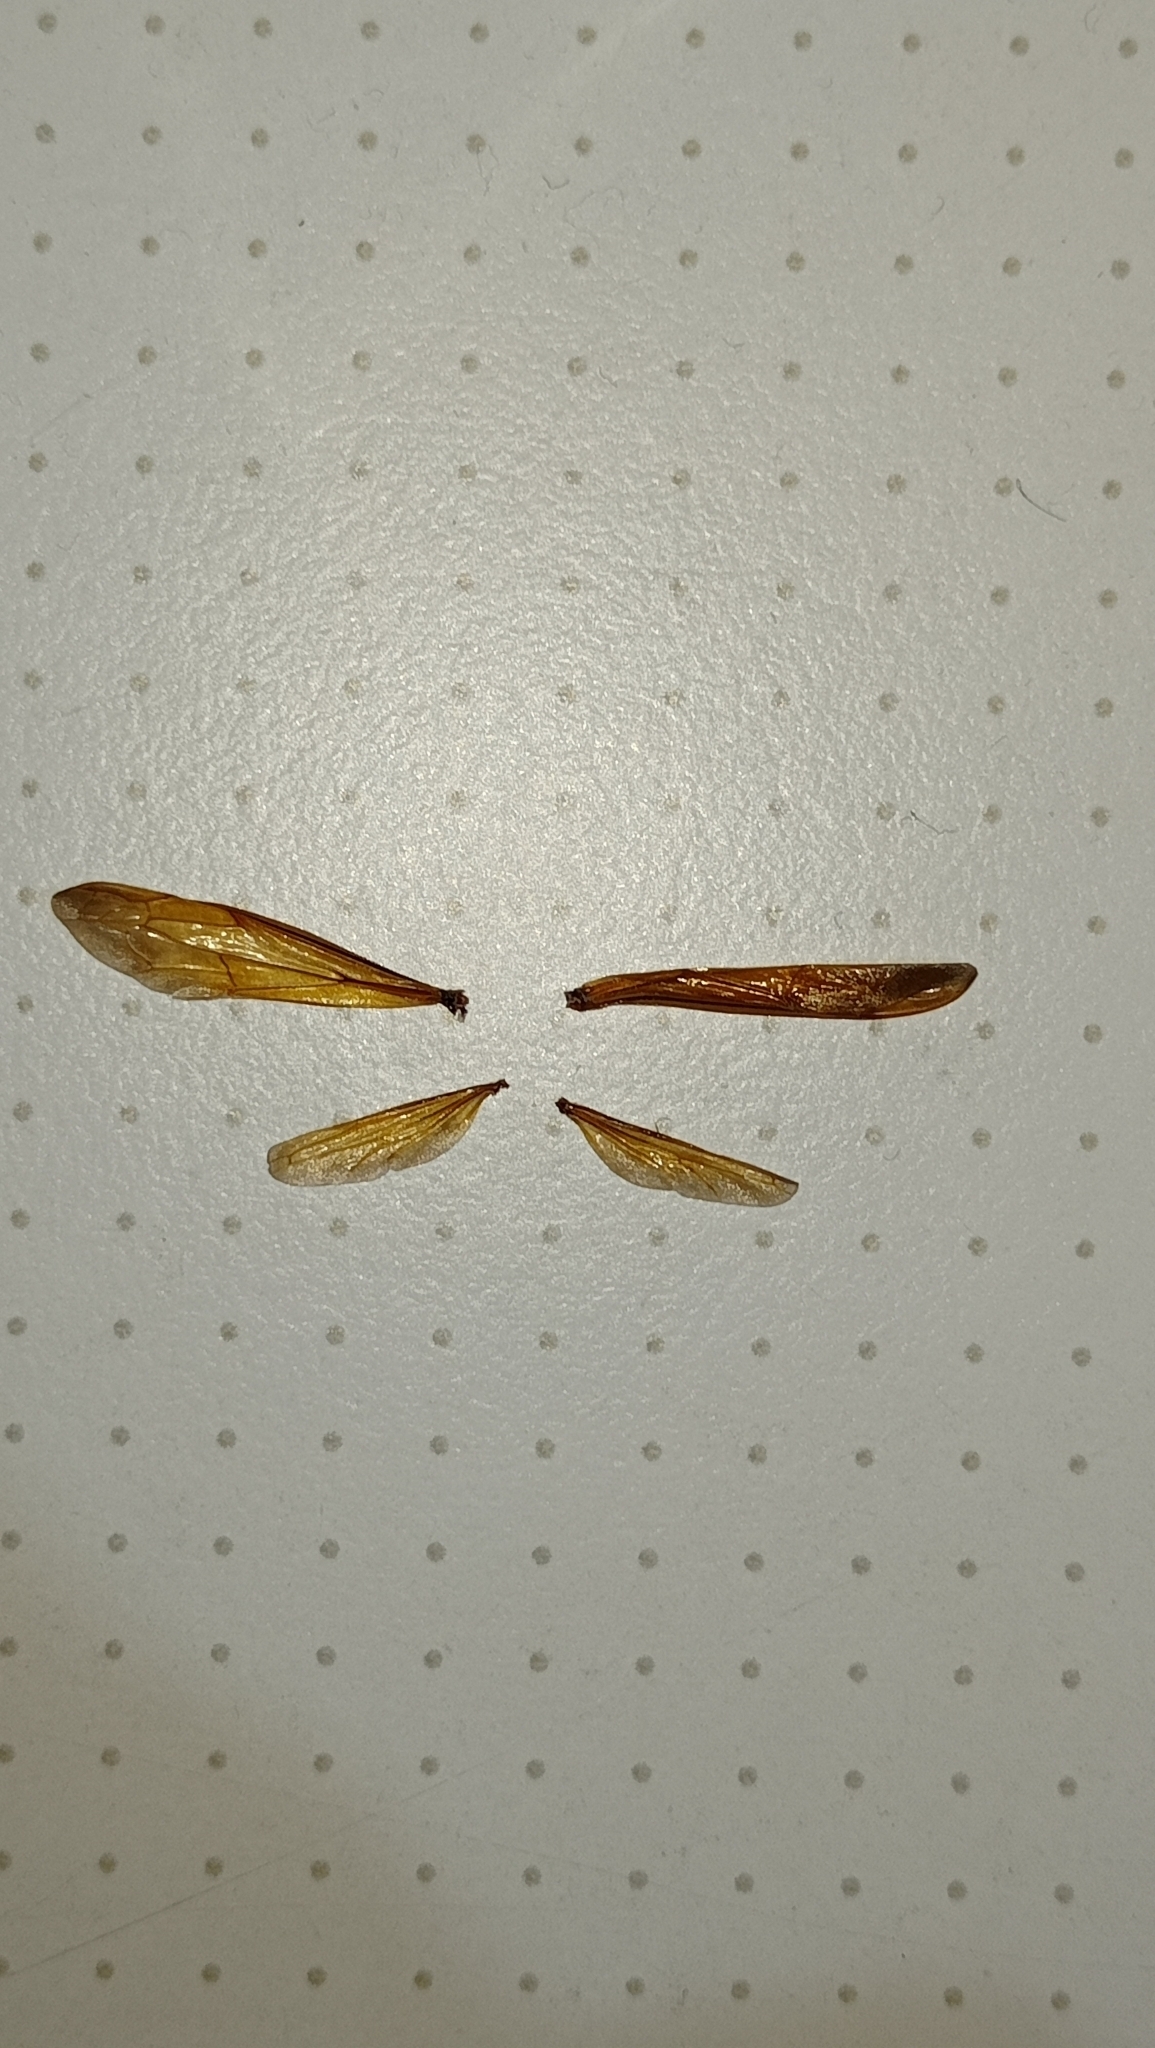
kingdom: Animalia
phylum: Arthropoda
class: Insecta
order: Hymenoptera
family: Vespidae
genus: Vespa
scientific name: Vespa orientalis
